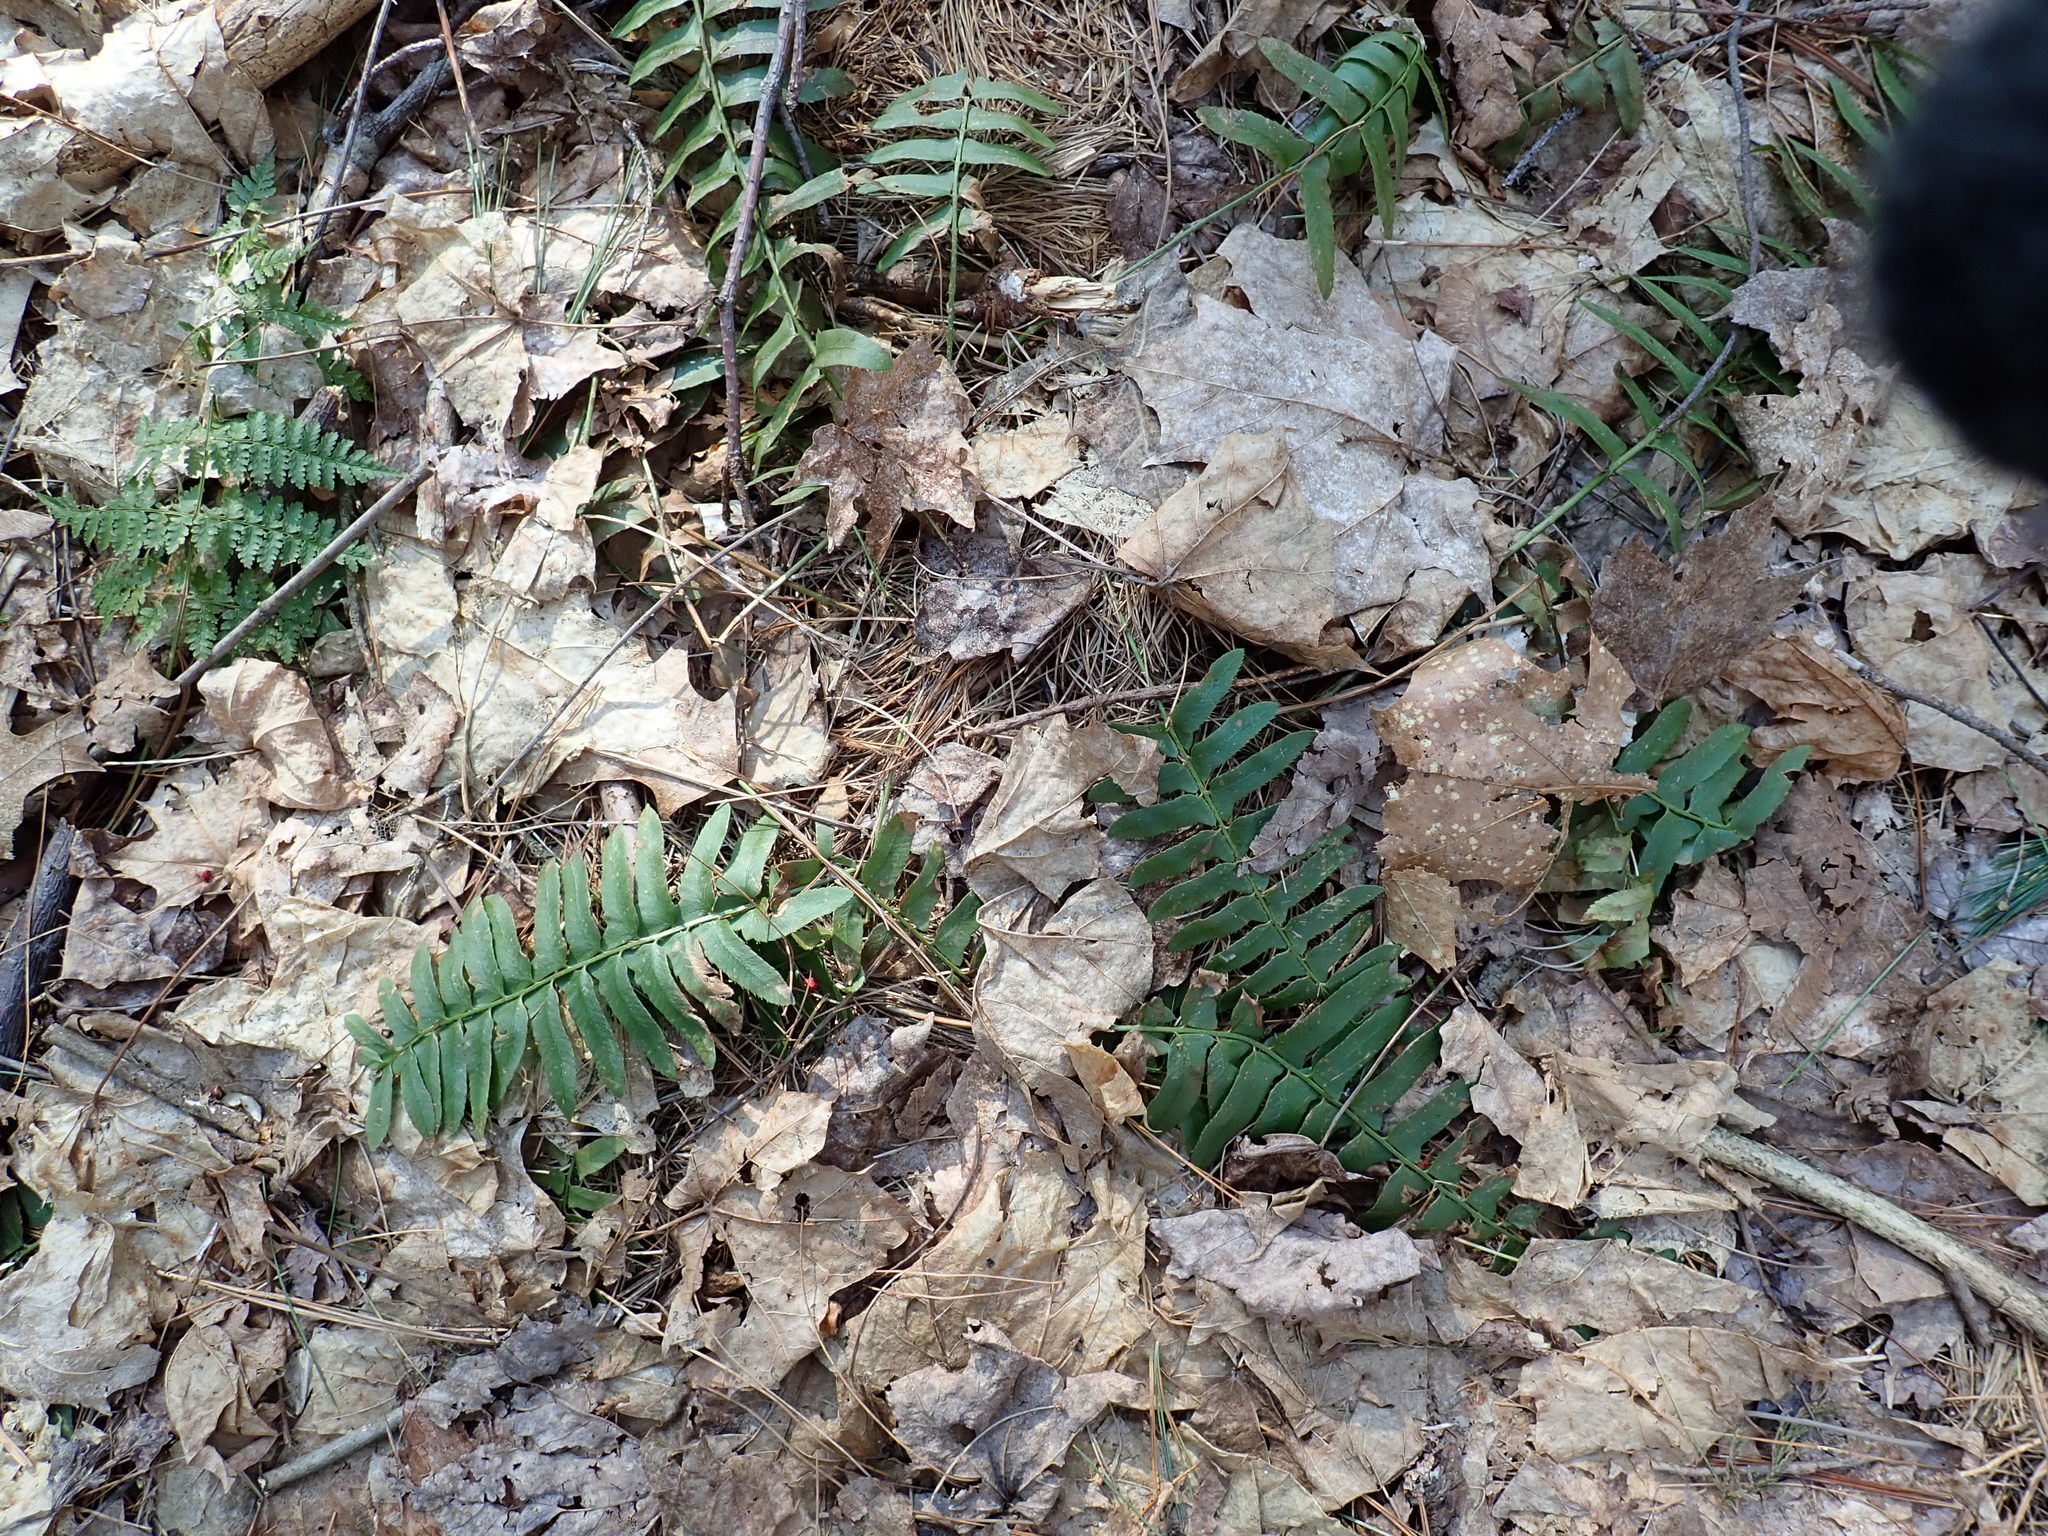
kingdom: Plantae
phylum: Tracheophyta
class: Polypodiopsida
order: Polypodiales
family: Dryopteridaceae
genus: Polystichum
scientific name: Polystichum acrostichoides
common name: Christmas fern
